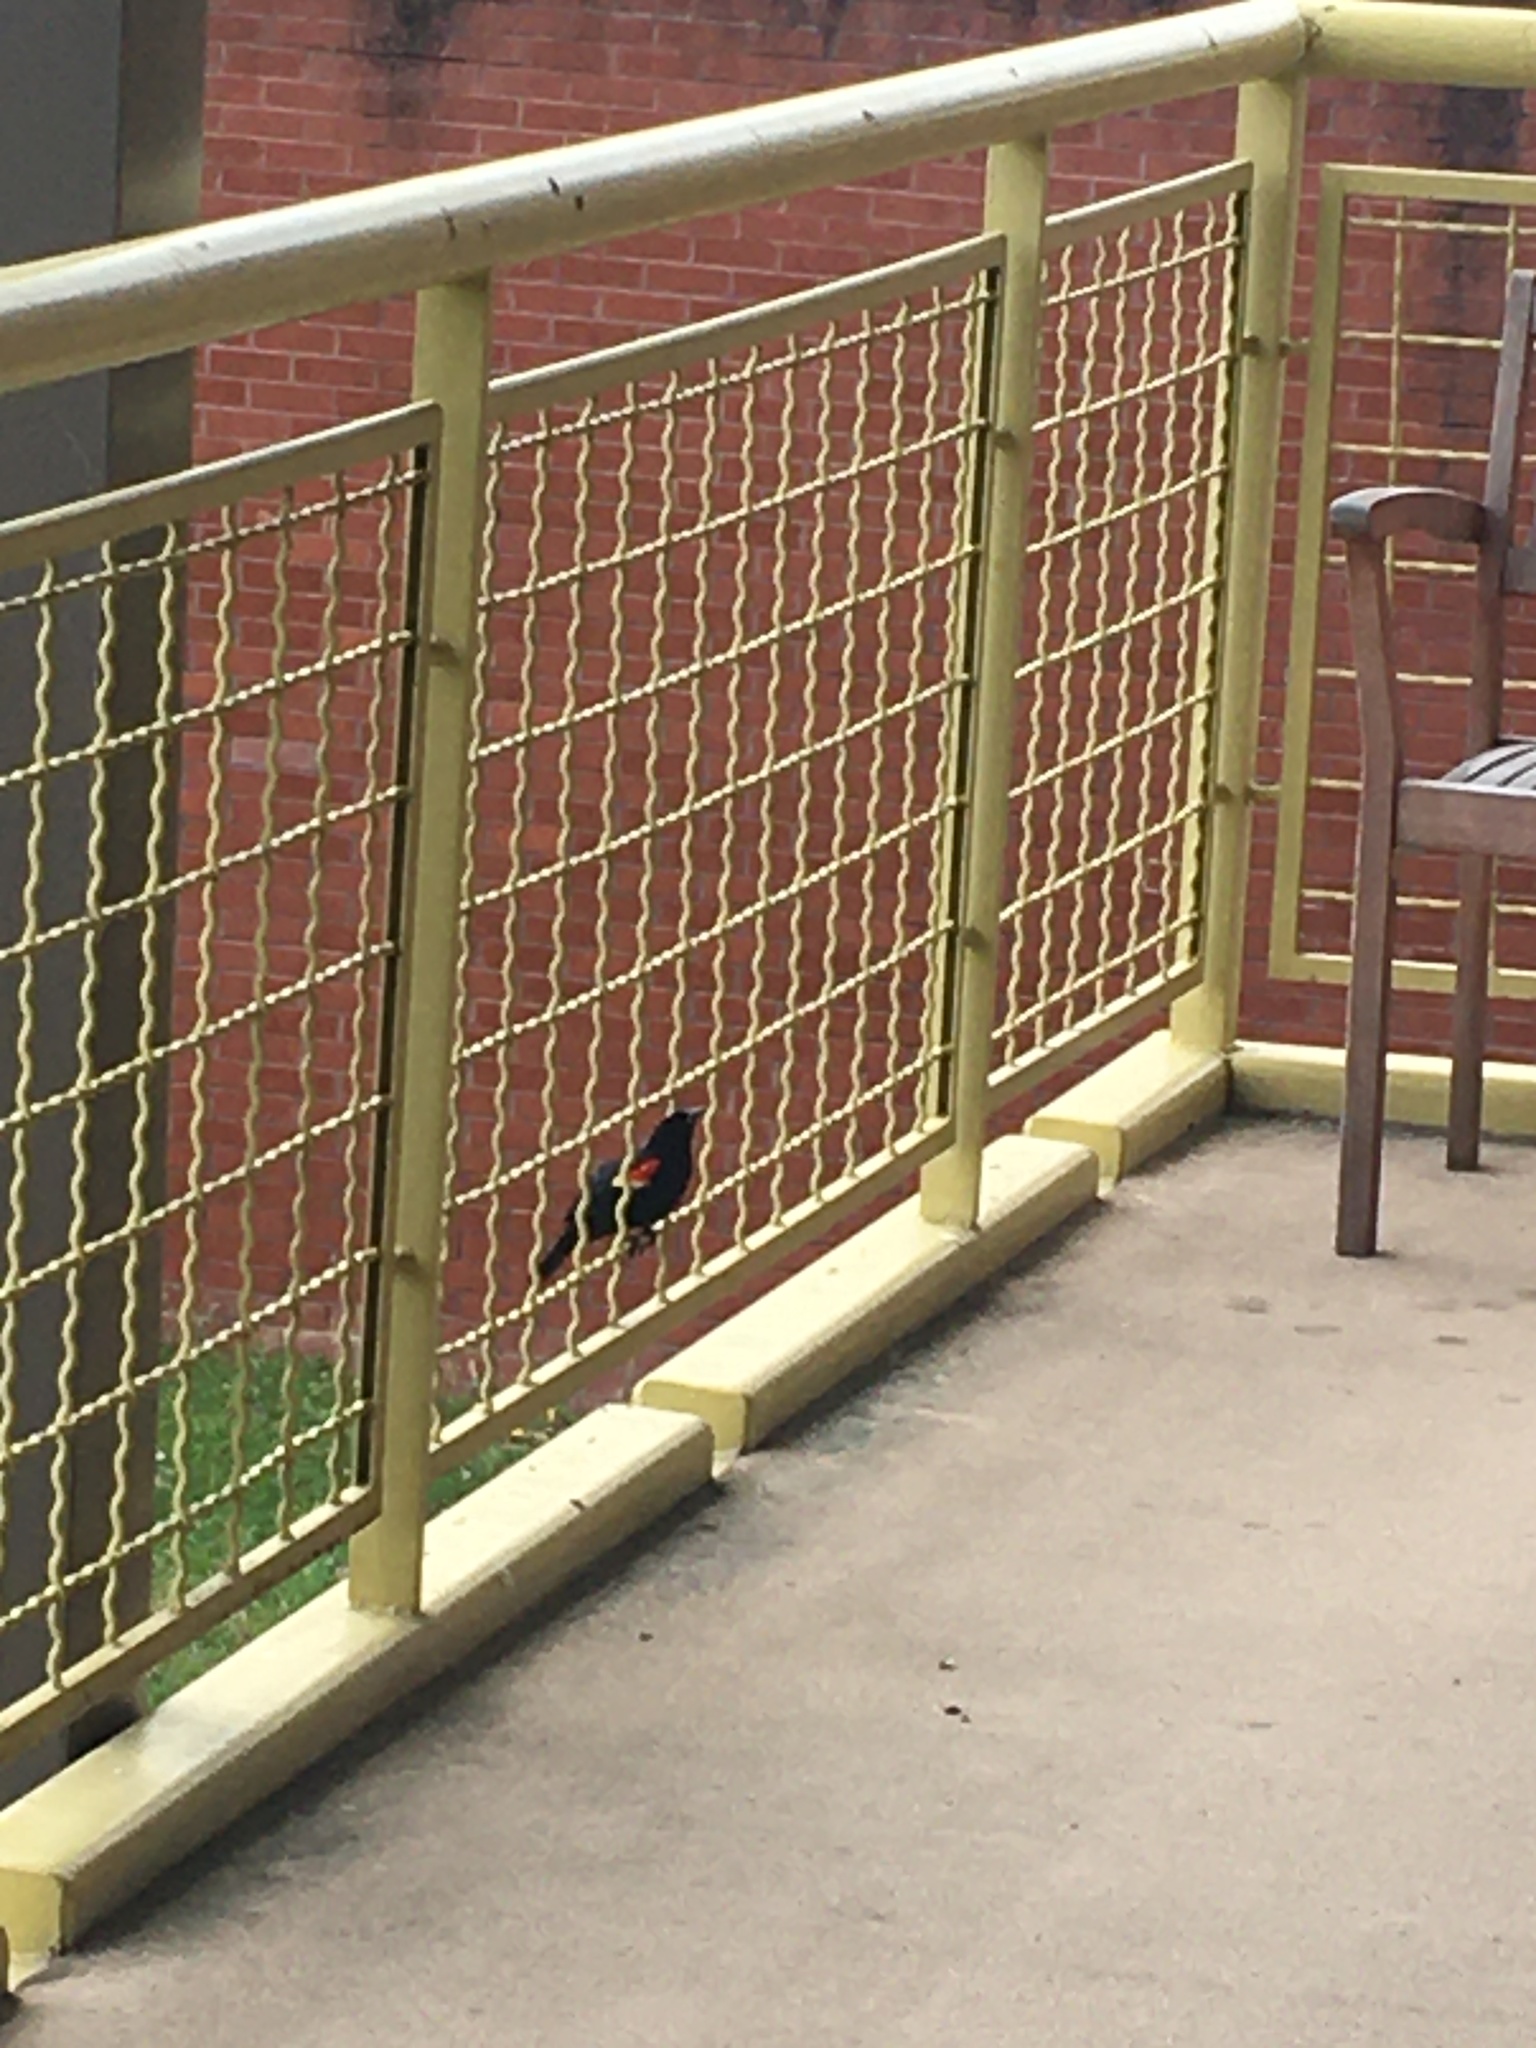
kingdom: Animalia
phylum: Chordata
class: Aves
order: Passeriformes
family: Icteridae
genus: Agelaius
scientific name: Agelaius phoeniceus
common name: Red-winged blackbird
